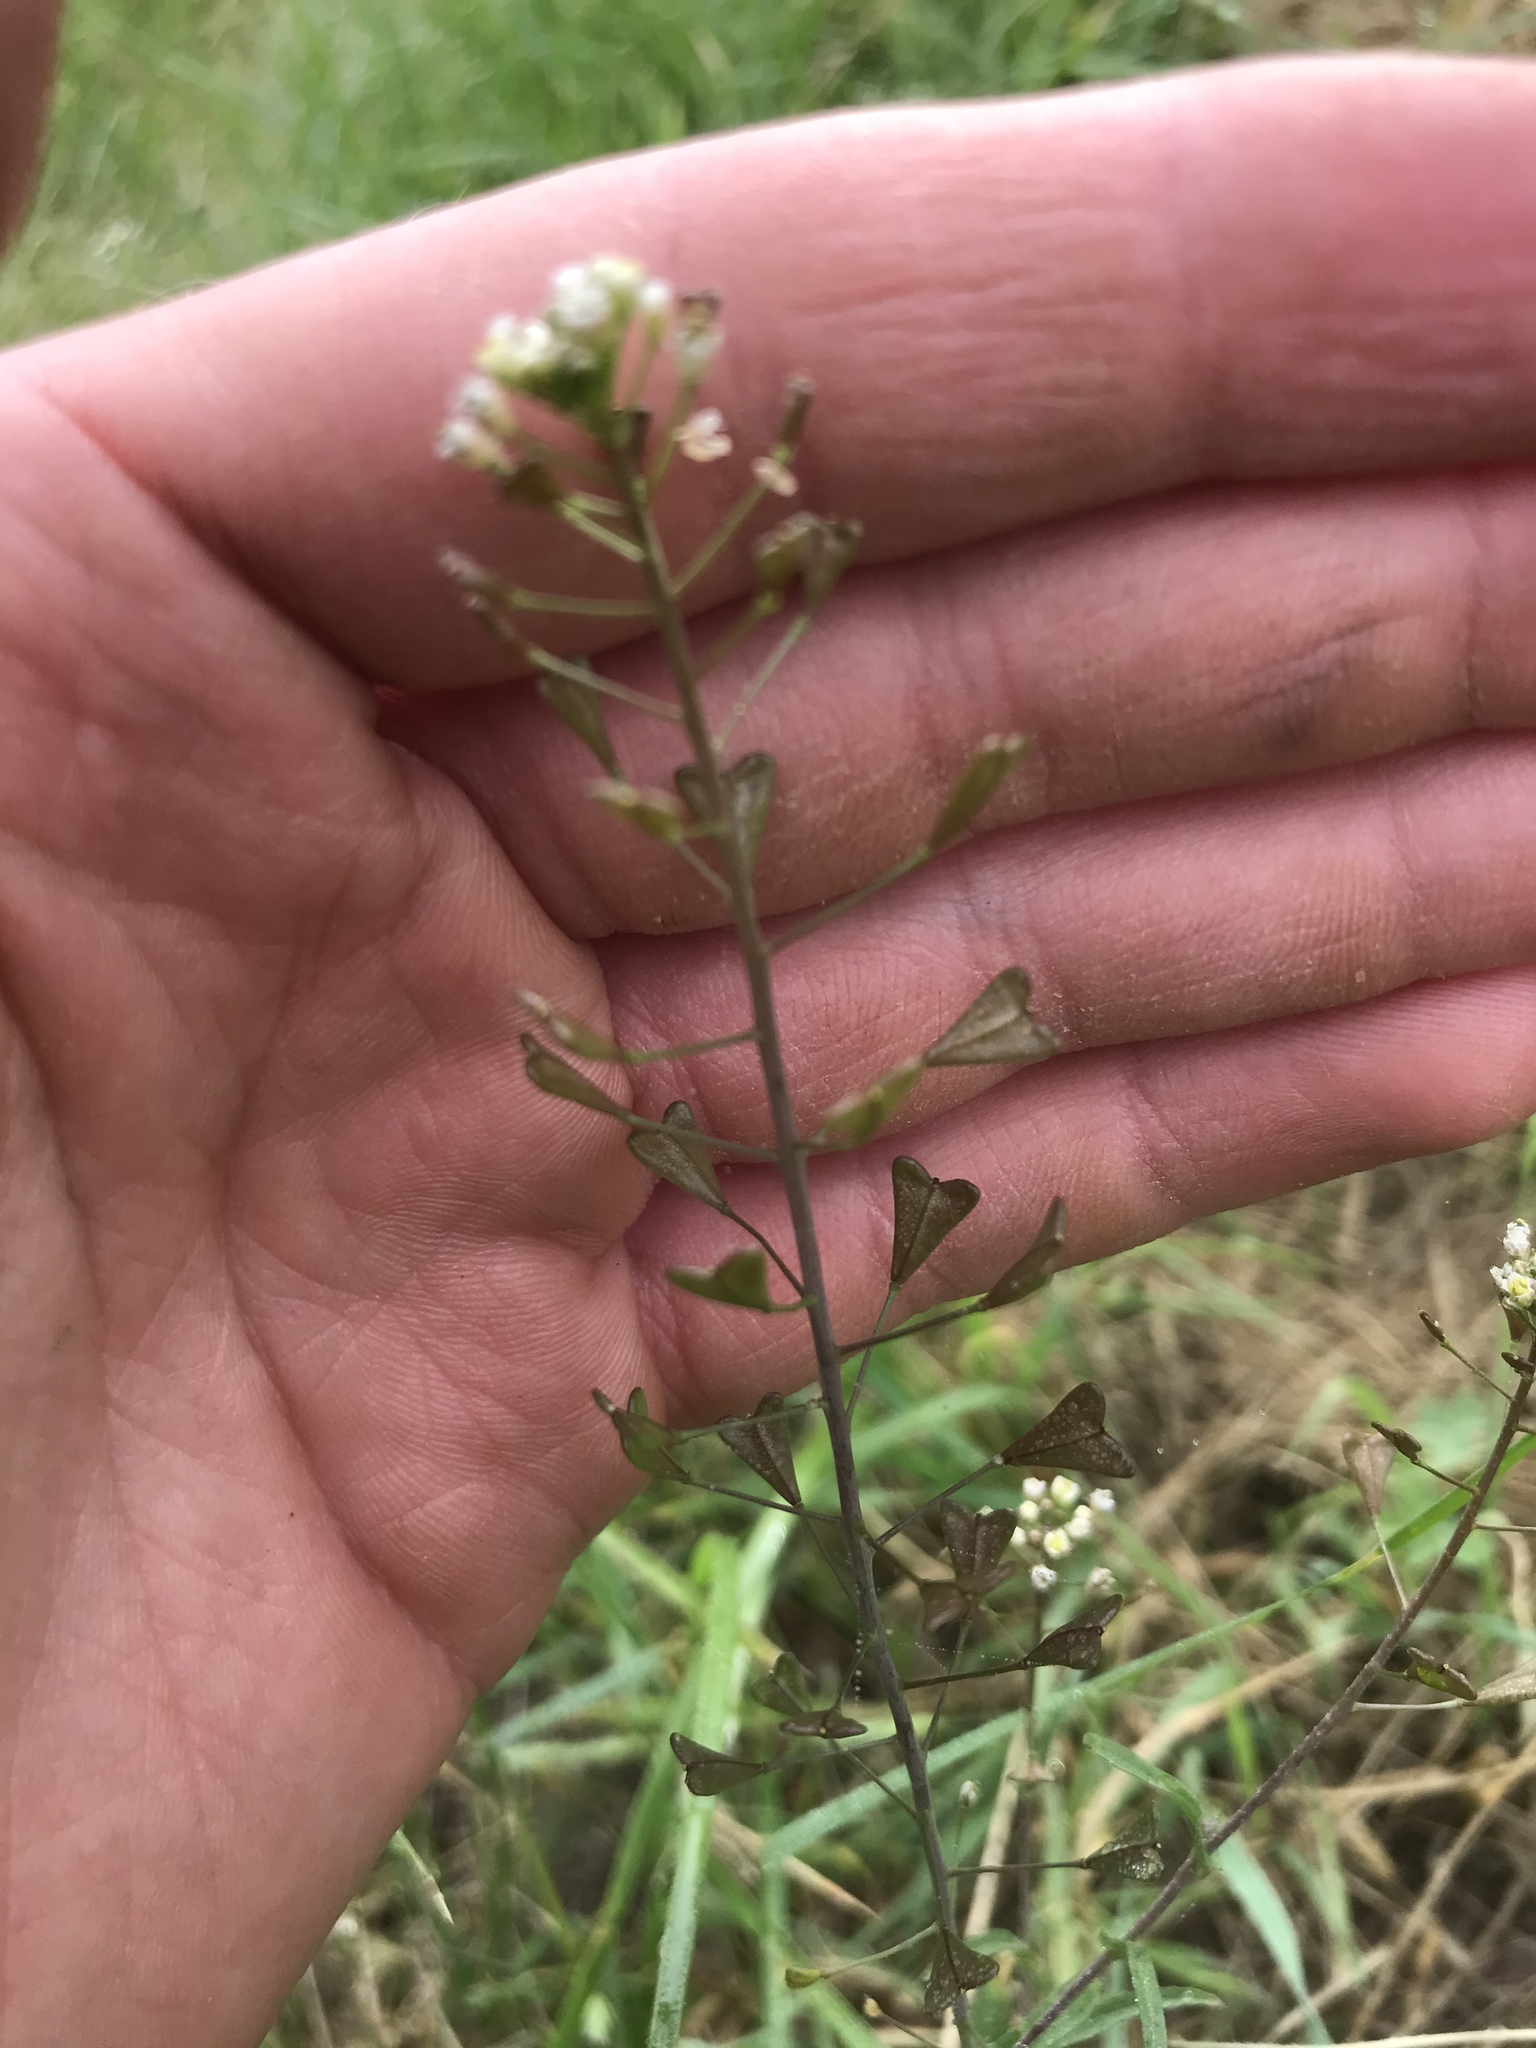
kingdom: Plantae
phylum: Tracheophyta
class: Magnoliopsida
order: Brassicales
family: Brassicaceae
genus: Capsella
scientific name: Capsella bursa-pastoris
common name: Shepherd's purse
